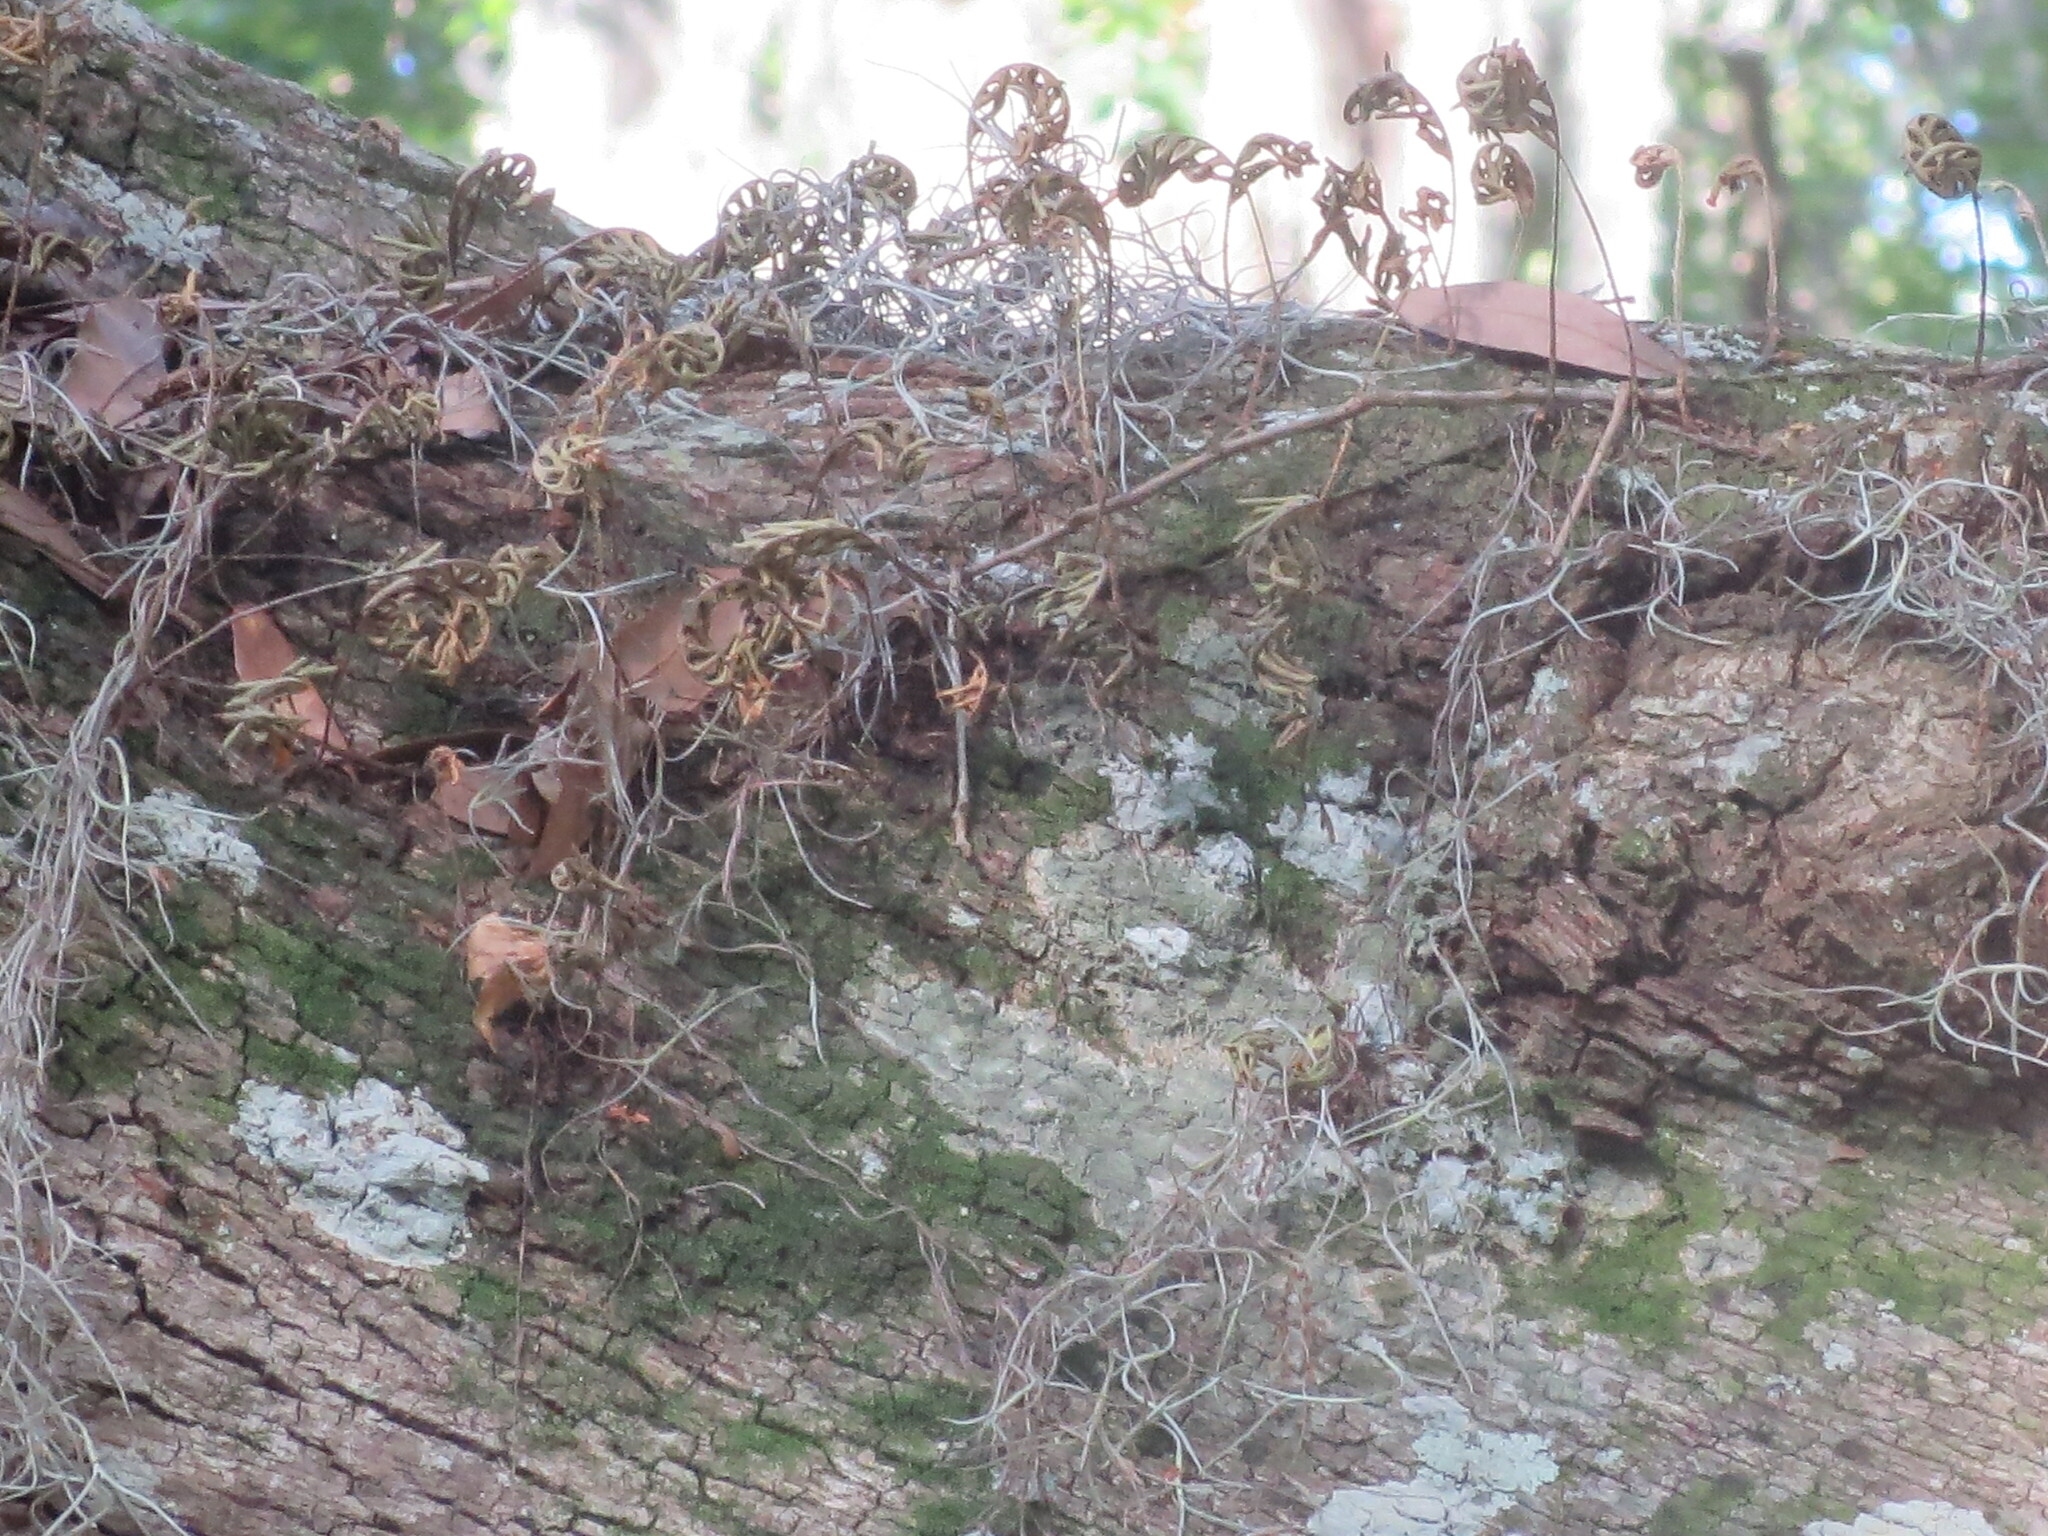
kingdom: Plantae
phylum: Tracheophyta
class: Polypodiopsida
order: Polypodiales
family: Polypodiaceae
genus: Pleopeltis
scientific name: Pleopeltis michauxiana
